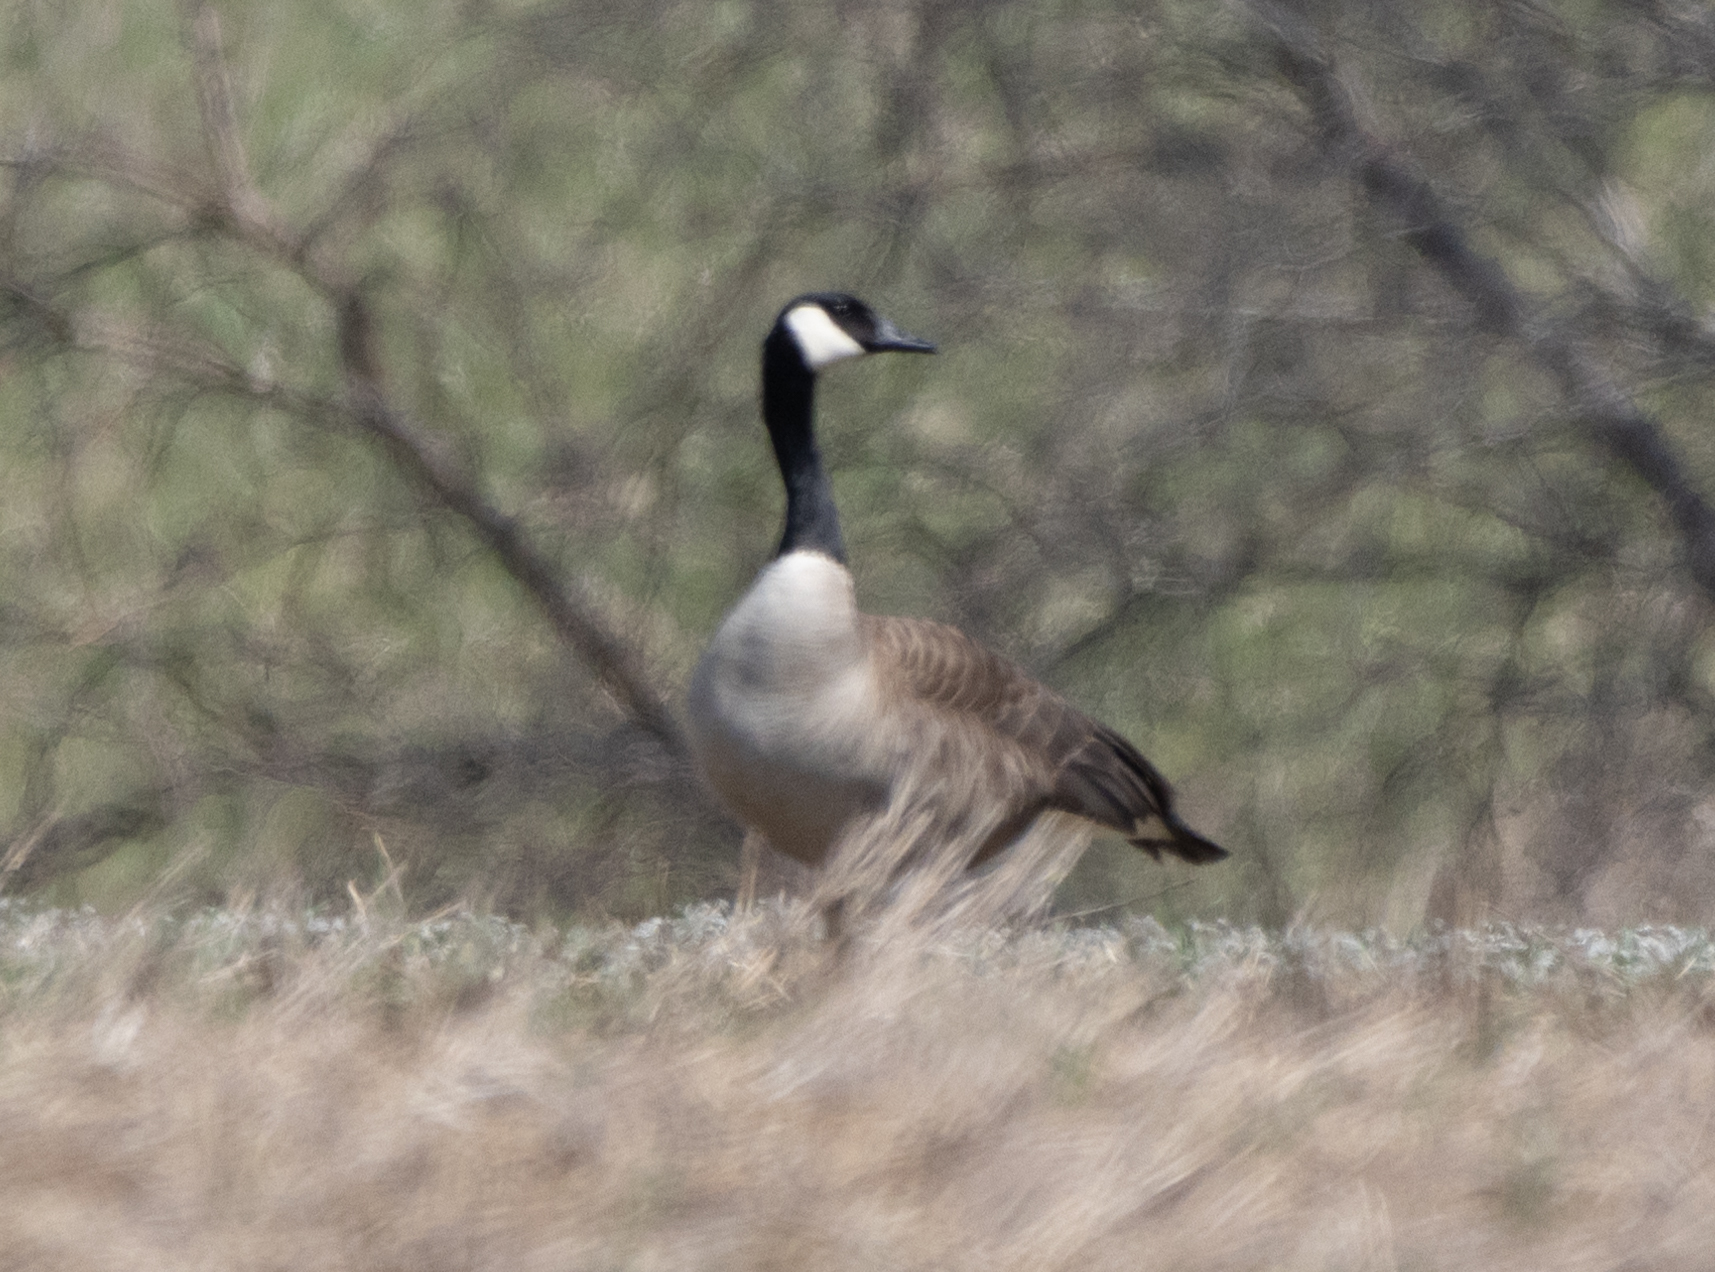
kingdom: Animalia
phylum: Chordata
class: Aves
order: Anseriformes
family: Anatidae
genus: Branta
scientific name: Branta canadensis
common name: Canada goose
